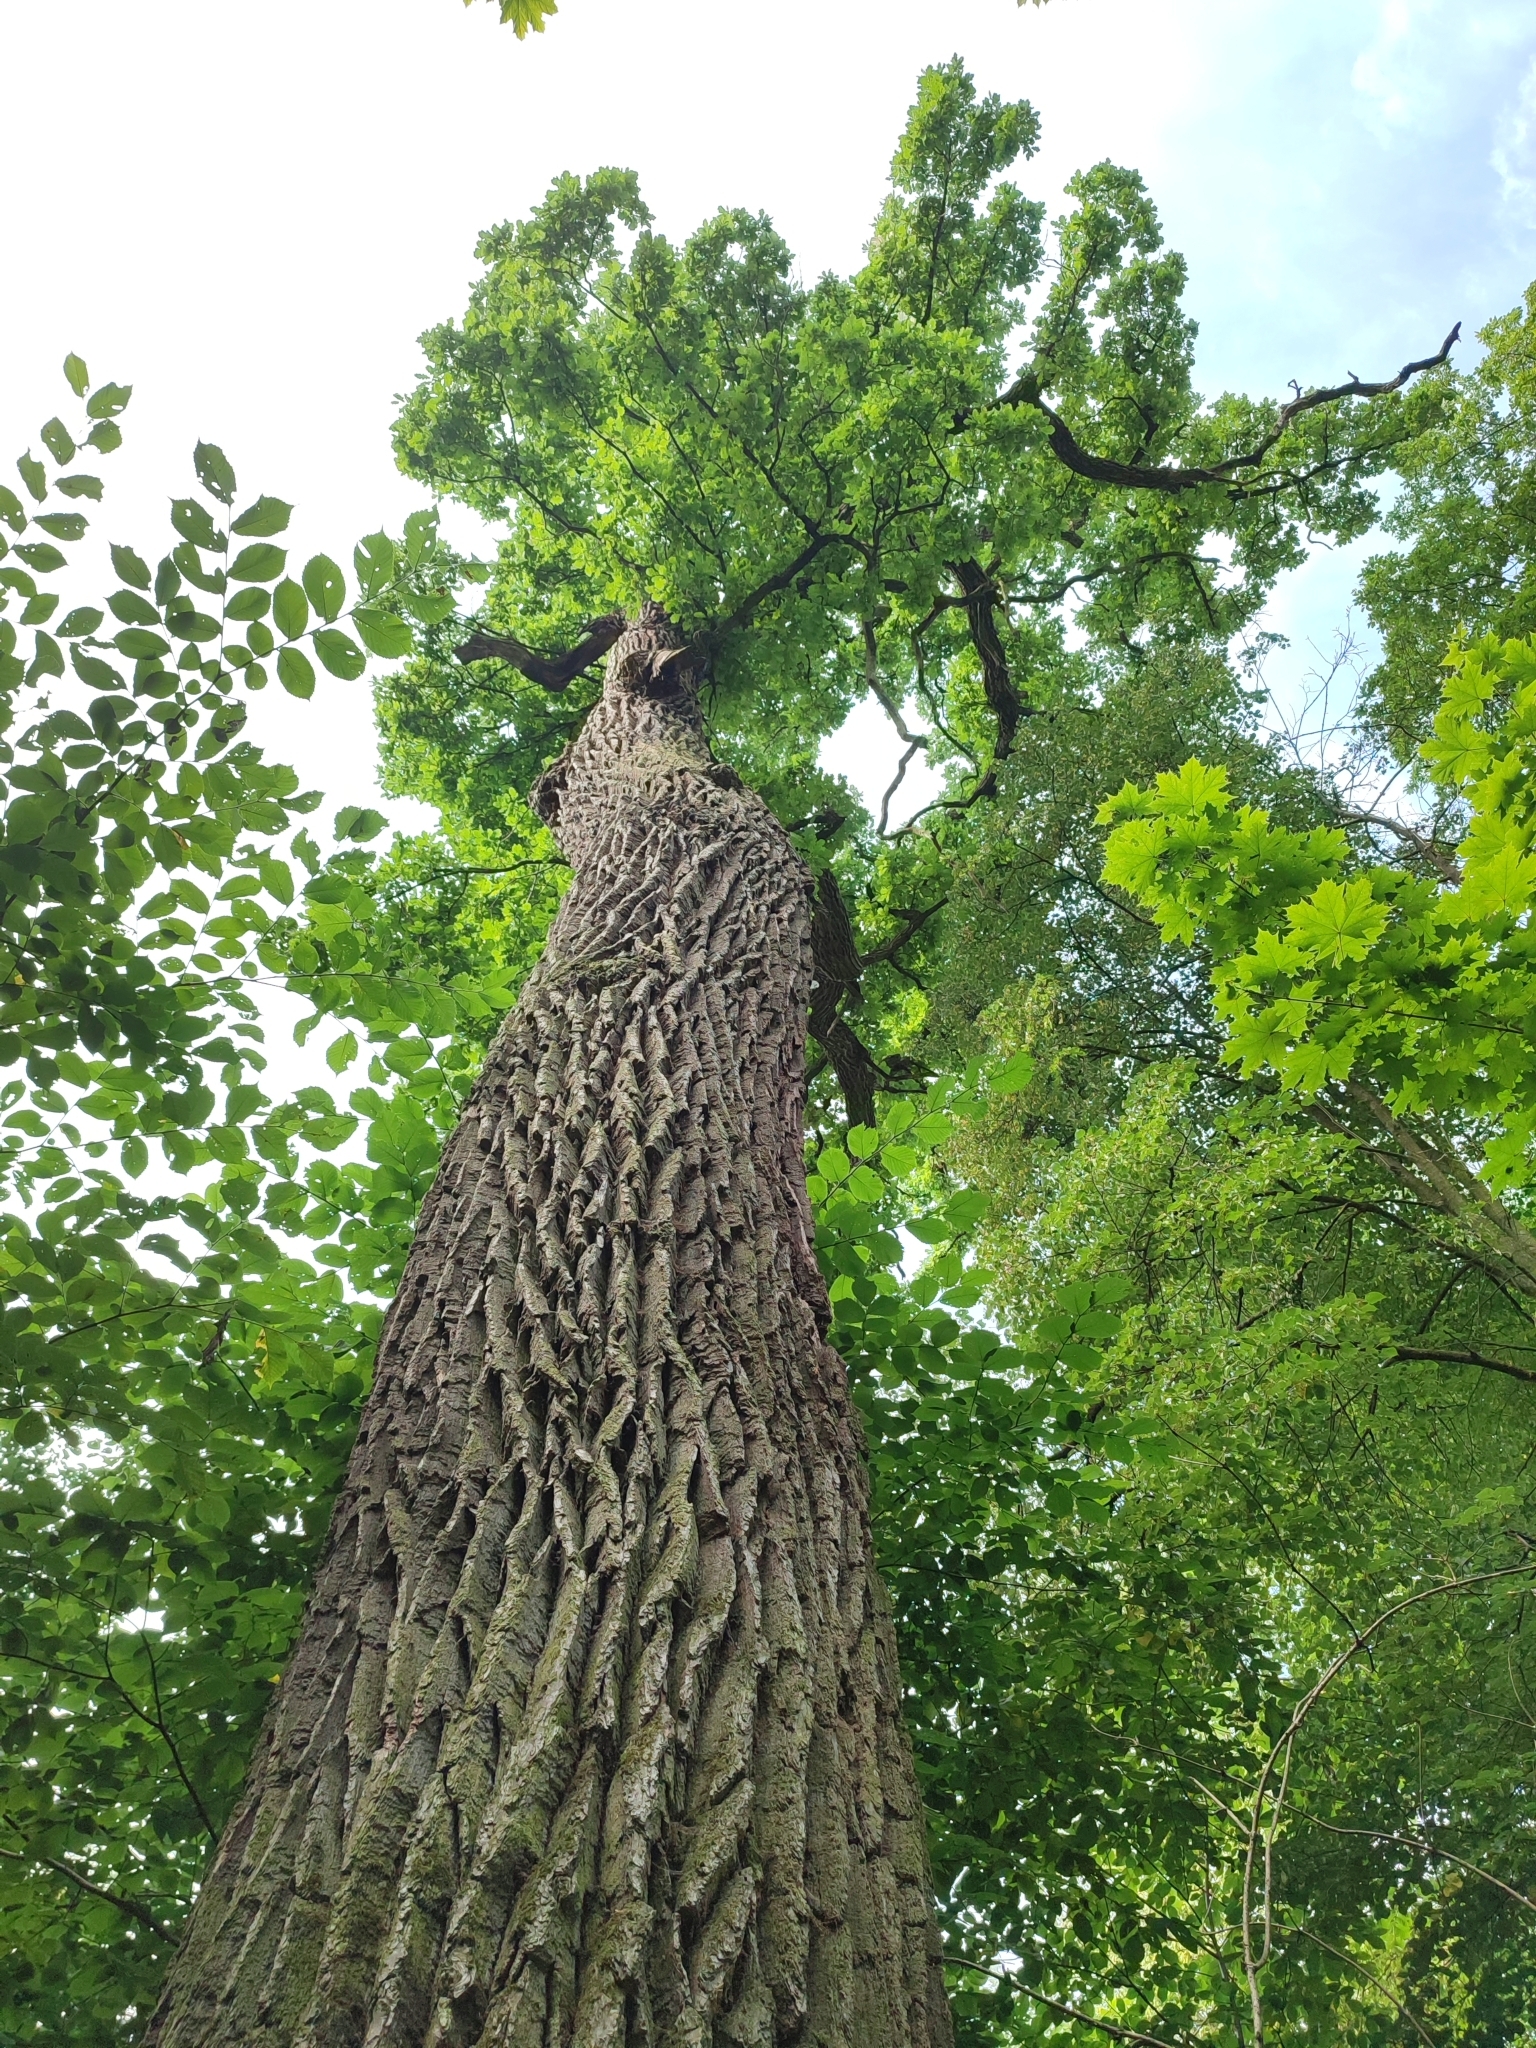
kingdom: Plantae
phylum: Tracheophyta
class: Magnoliopsida
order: Fagales
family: Fagaceae
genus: Quercus
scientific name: Quercus robur
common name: Pedunculate oak
